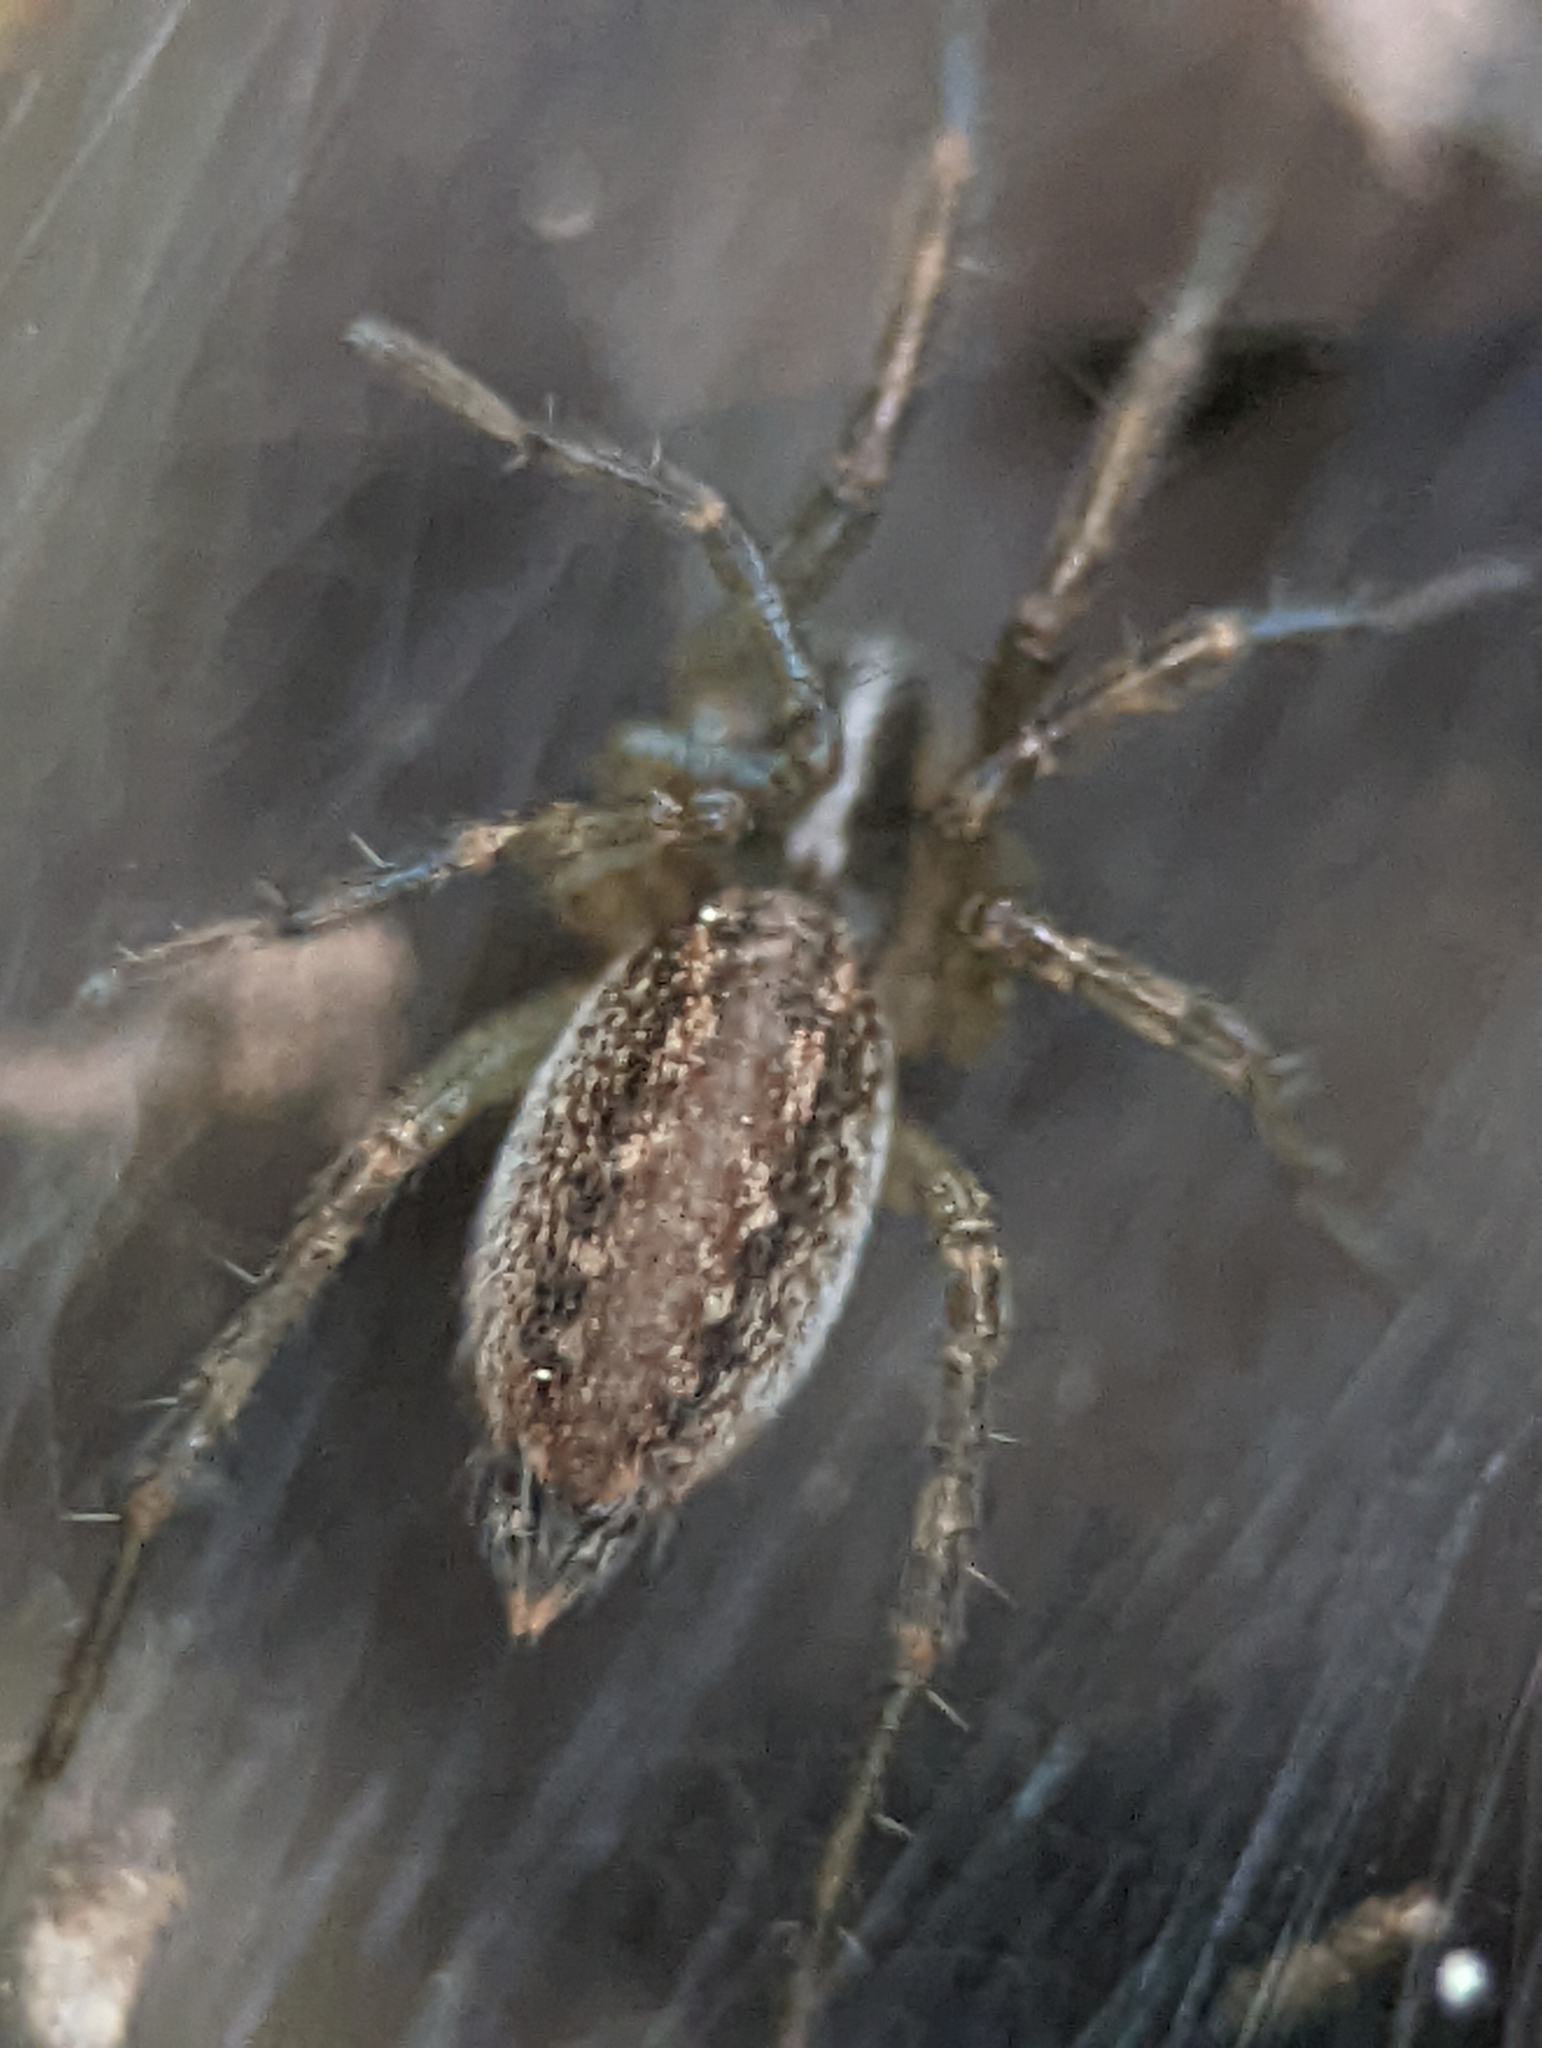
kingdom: Animalia
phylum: Arthropoda
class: Arachnida
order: Araneae
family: Agelenidae
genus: Agelenopsis
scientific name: Agelenopsis
